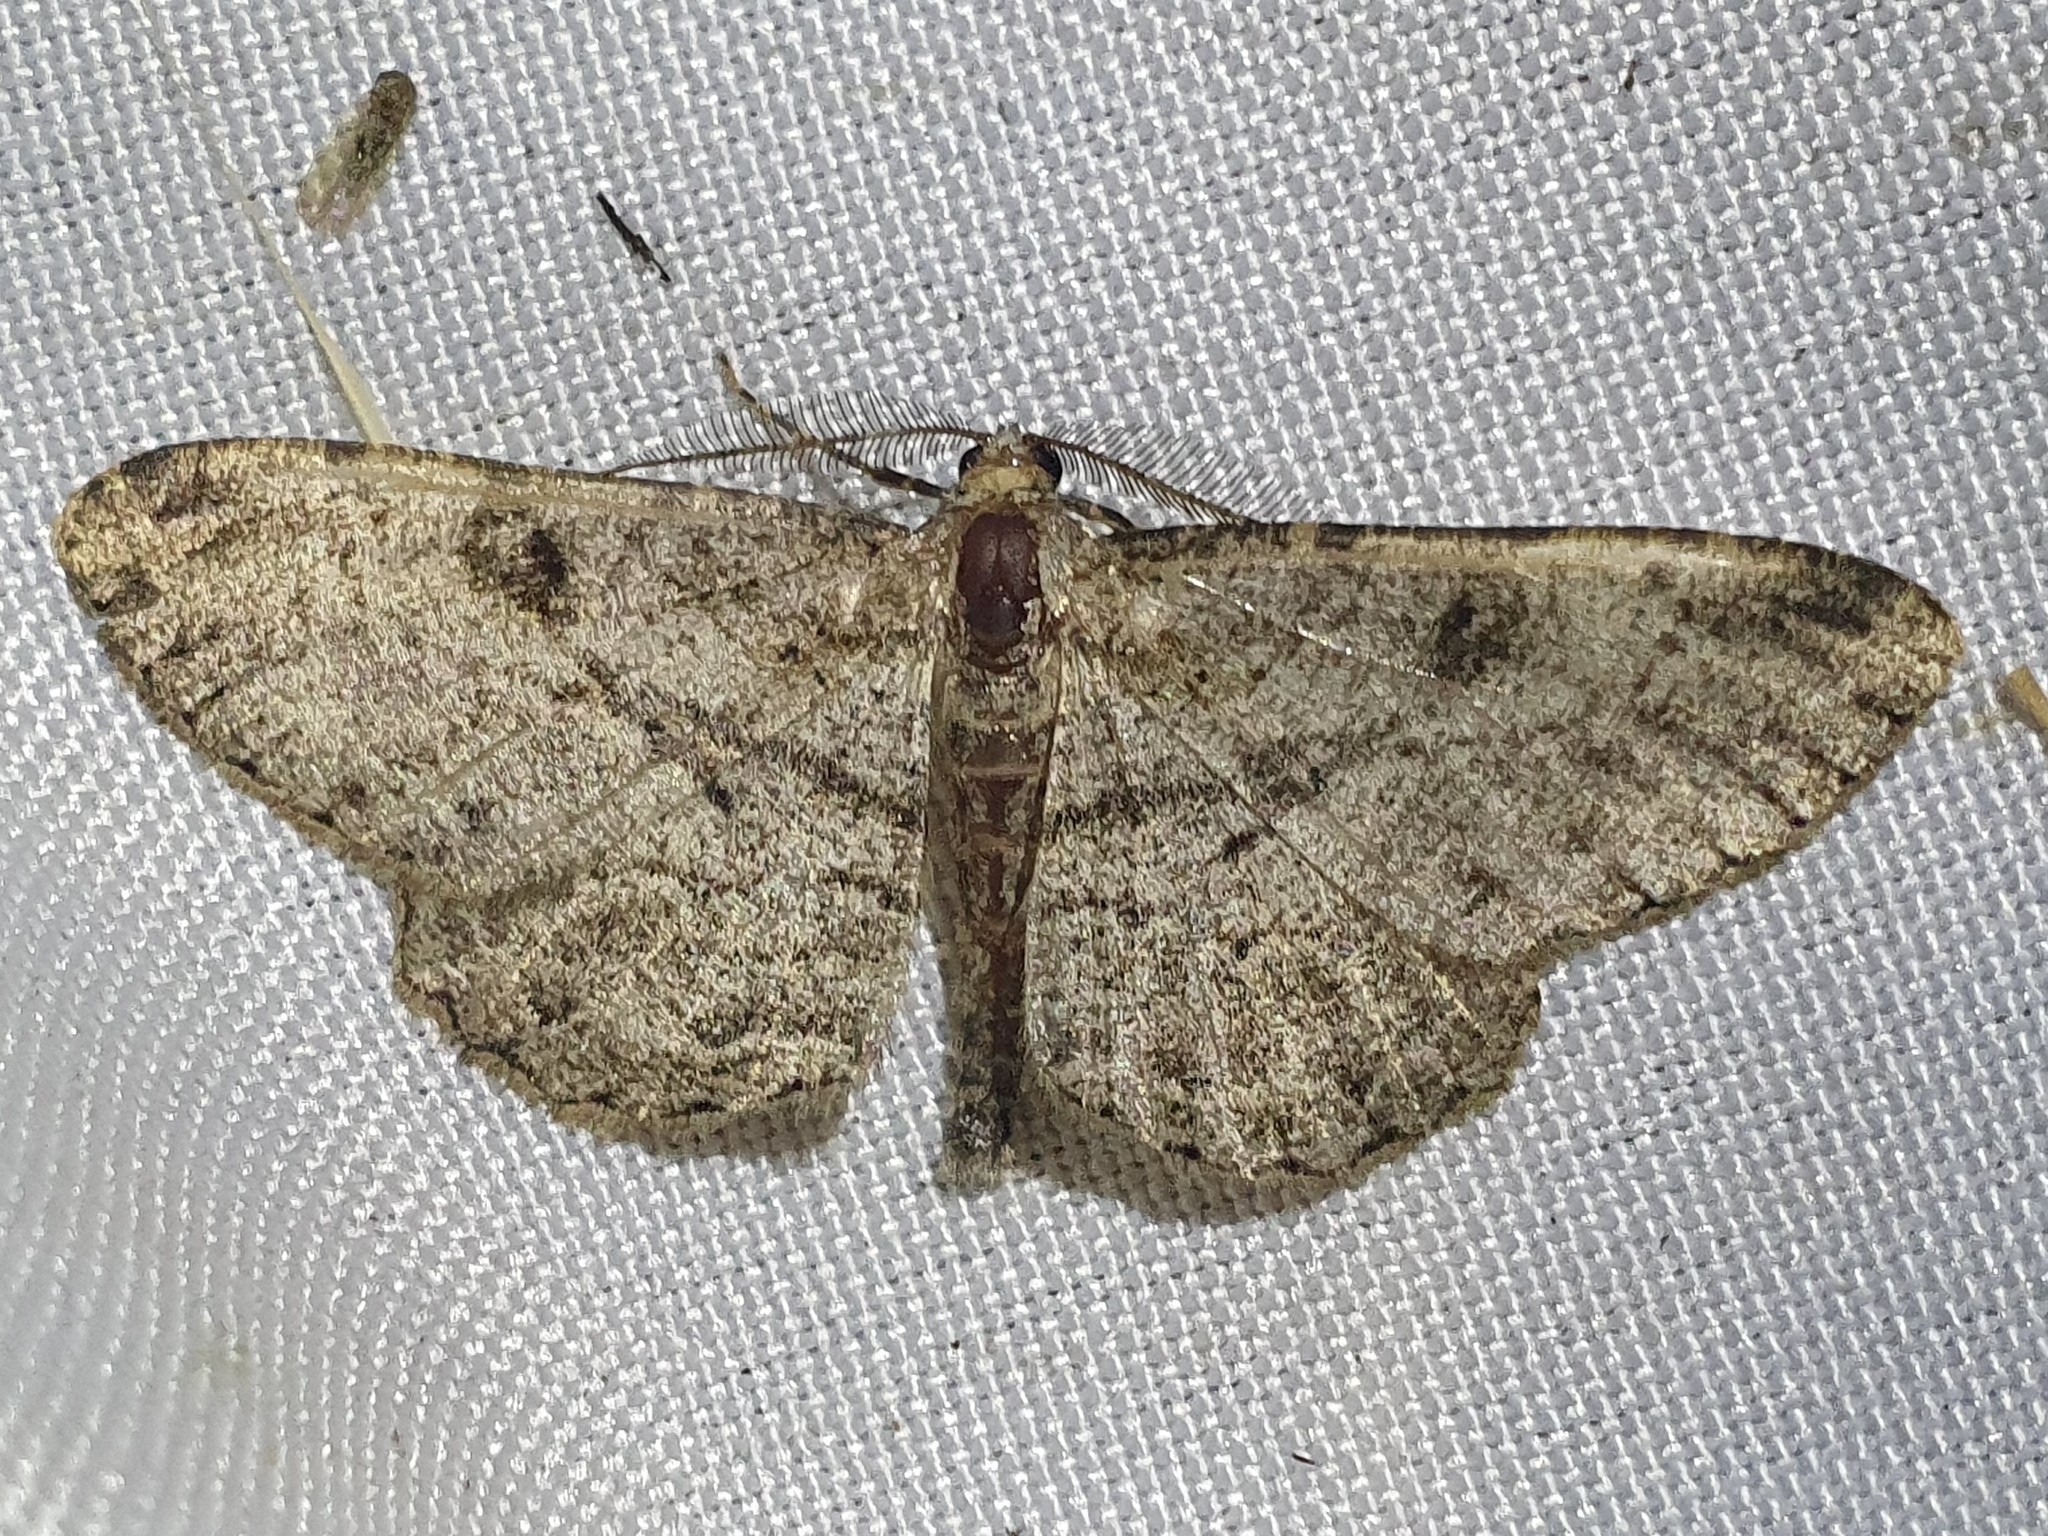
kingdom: Animalia
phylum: Arthropoda
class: Insecta
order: Lepidoptera
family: Geometridae
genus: Peribatodes
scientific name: Peribatodes rhomboidaria
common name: Willow beauty
